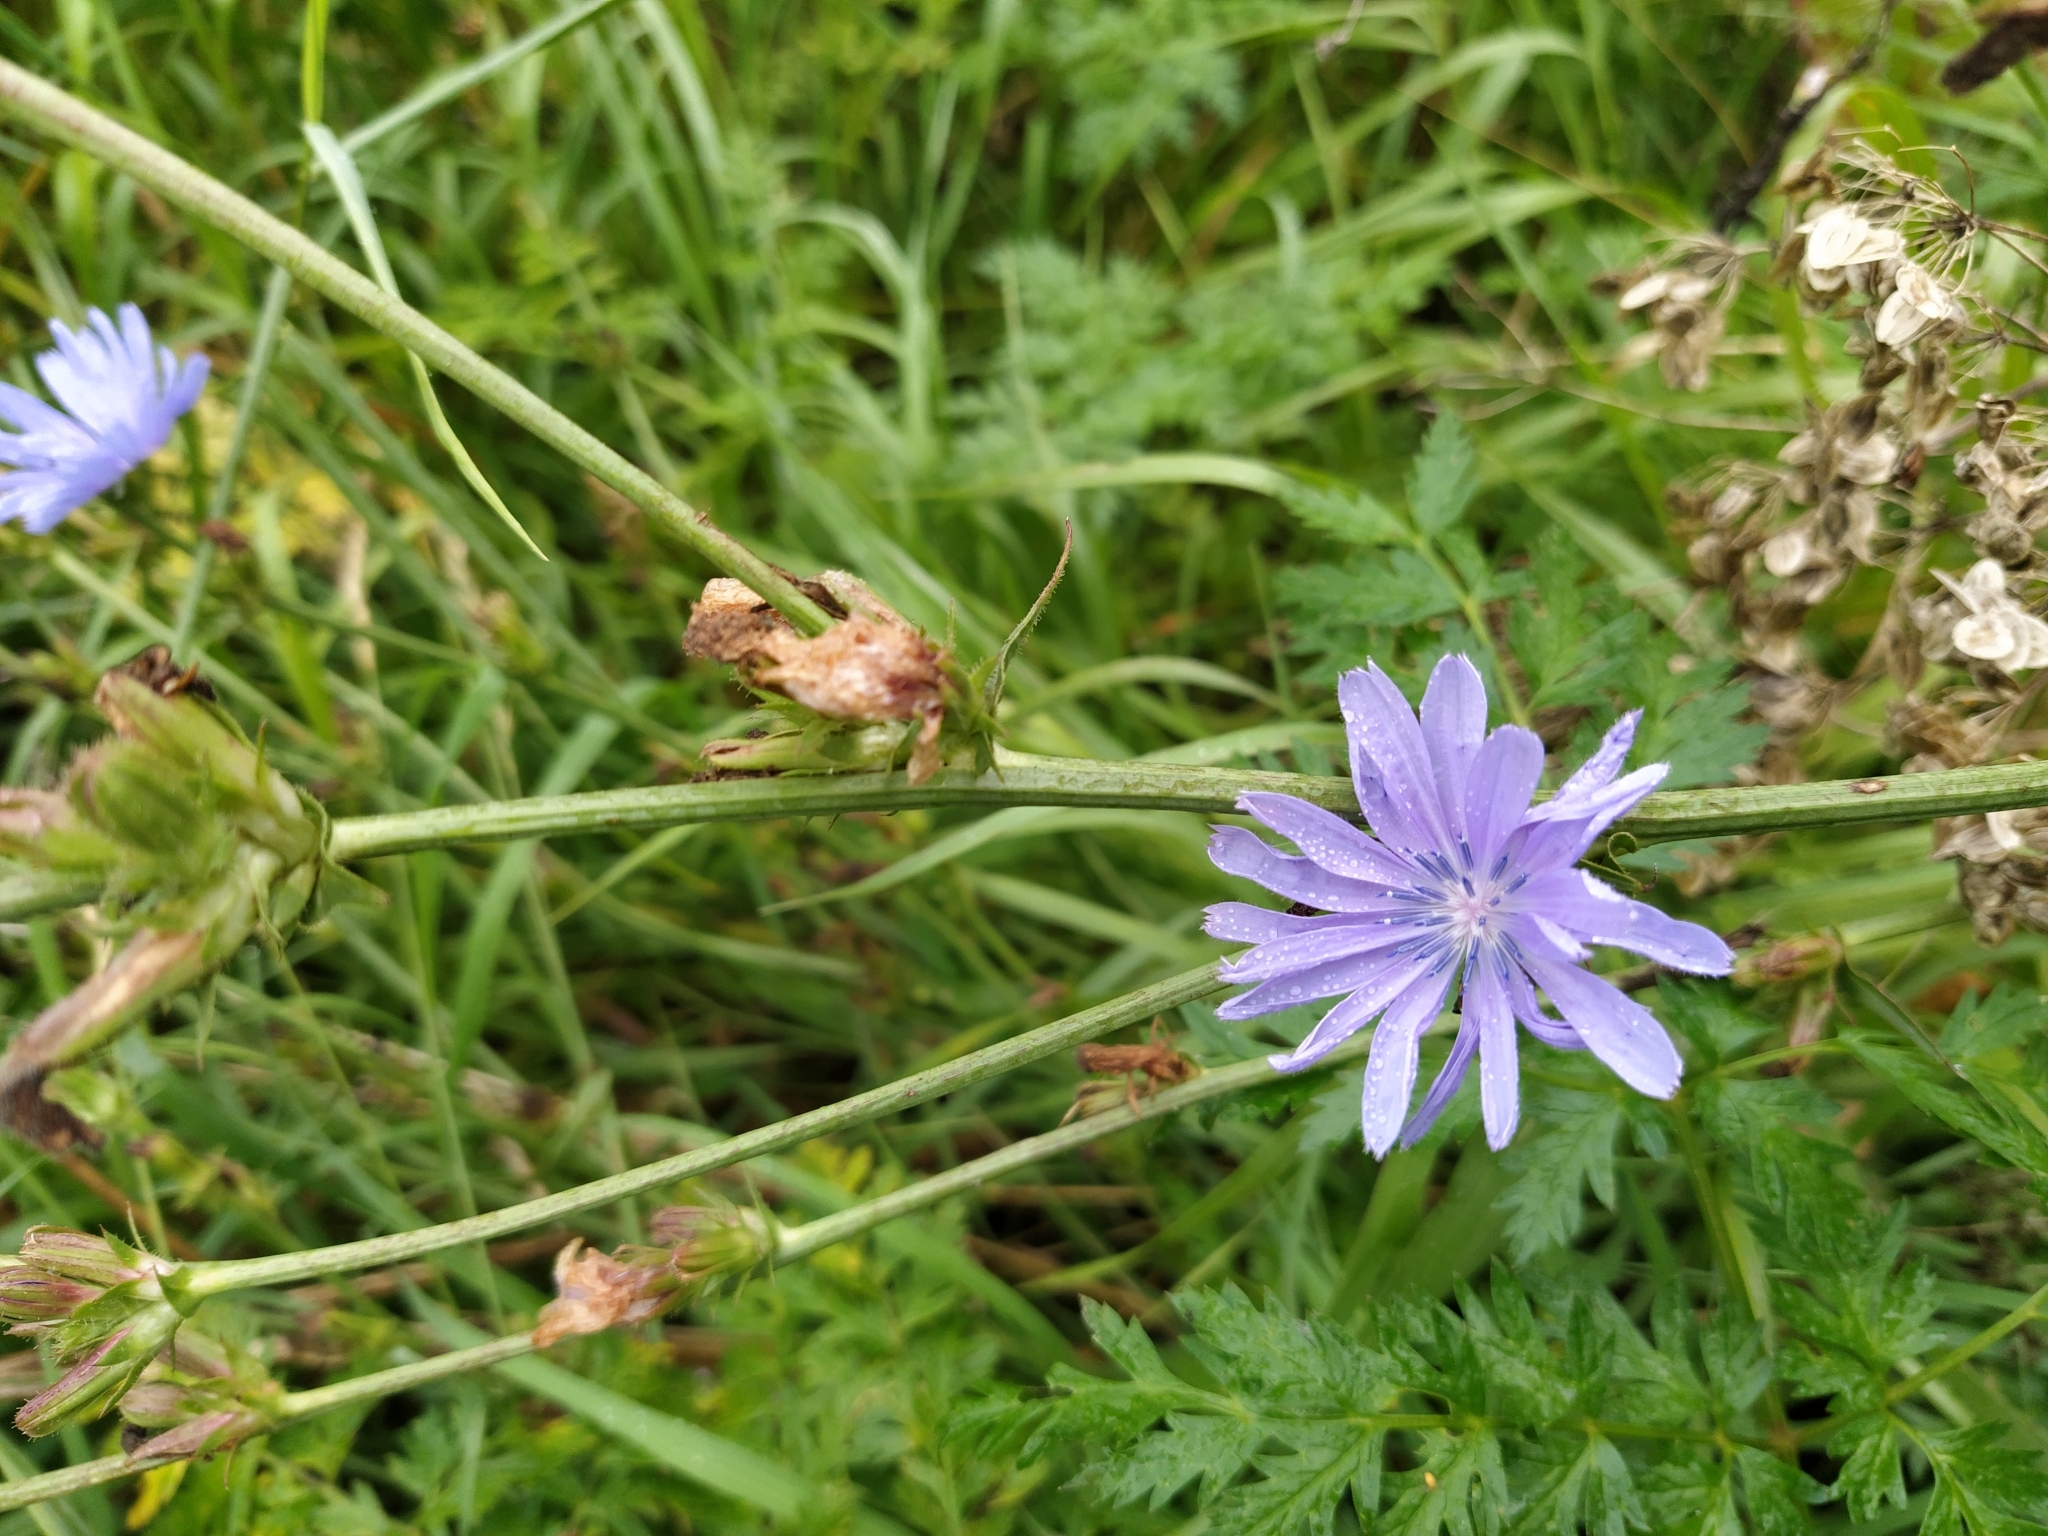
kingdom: Plantae
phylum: Tracheophyta
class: Magnoliopsida
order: Asterales
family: Asteraceae
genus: Cichorium
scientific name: Cichorium intybus
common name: Chicory
